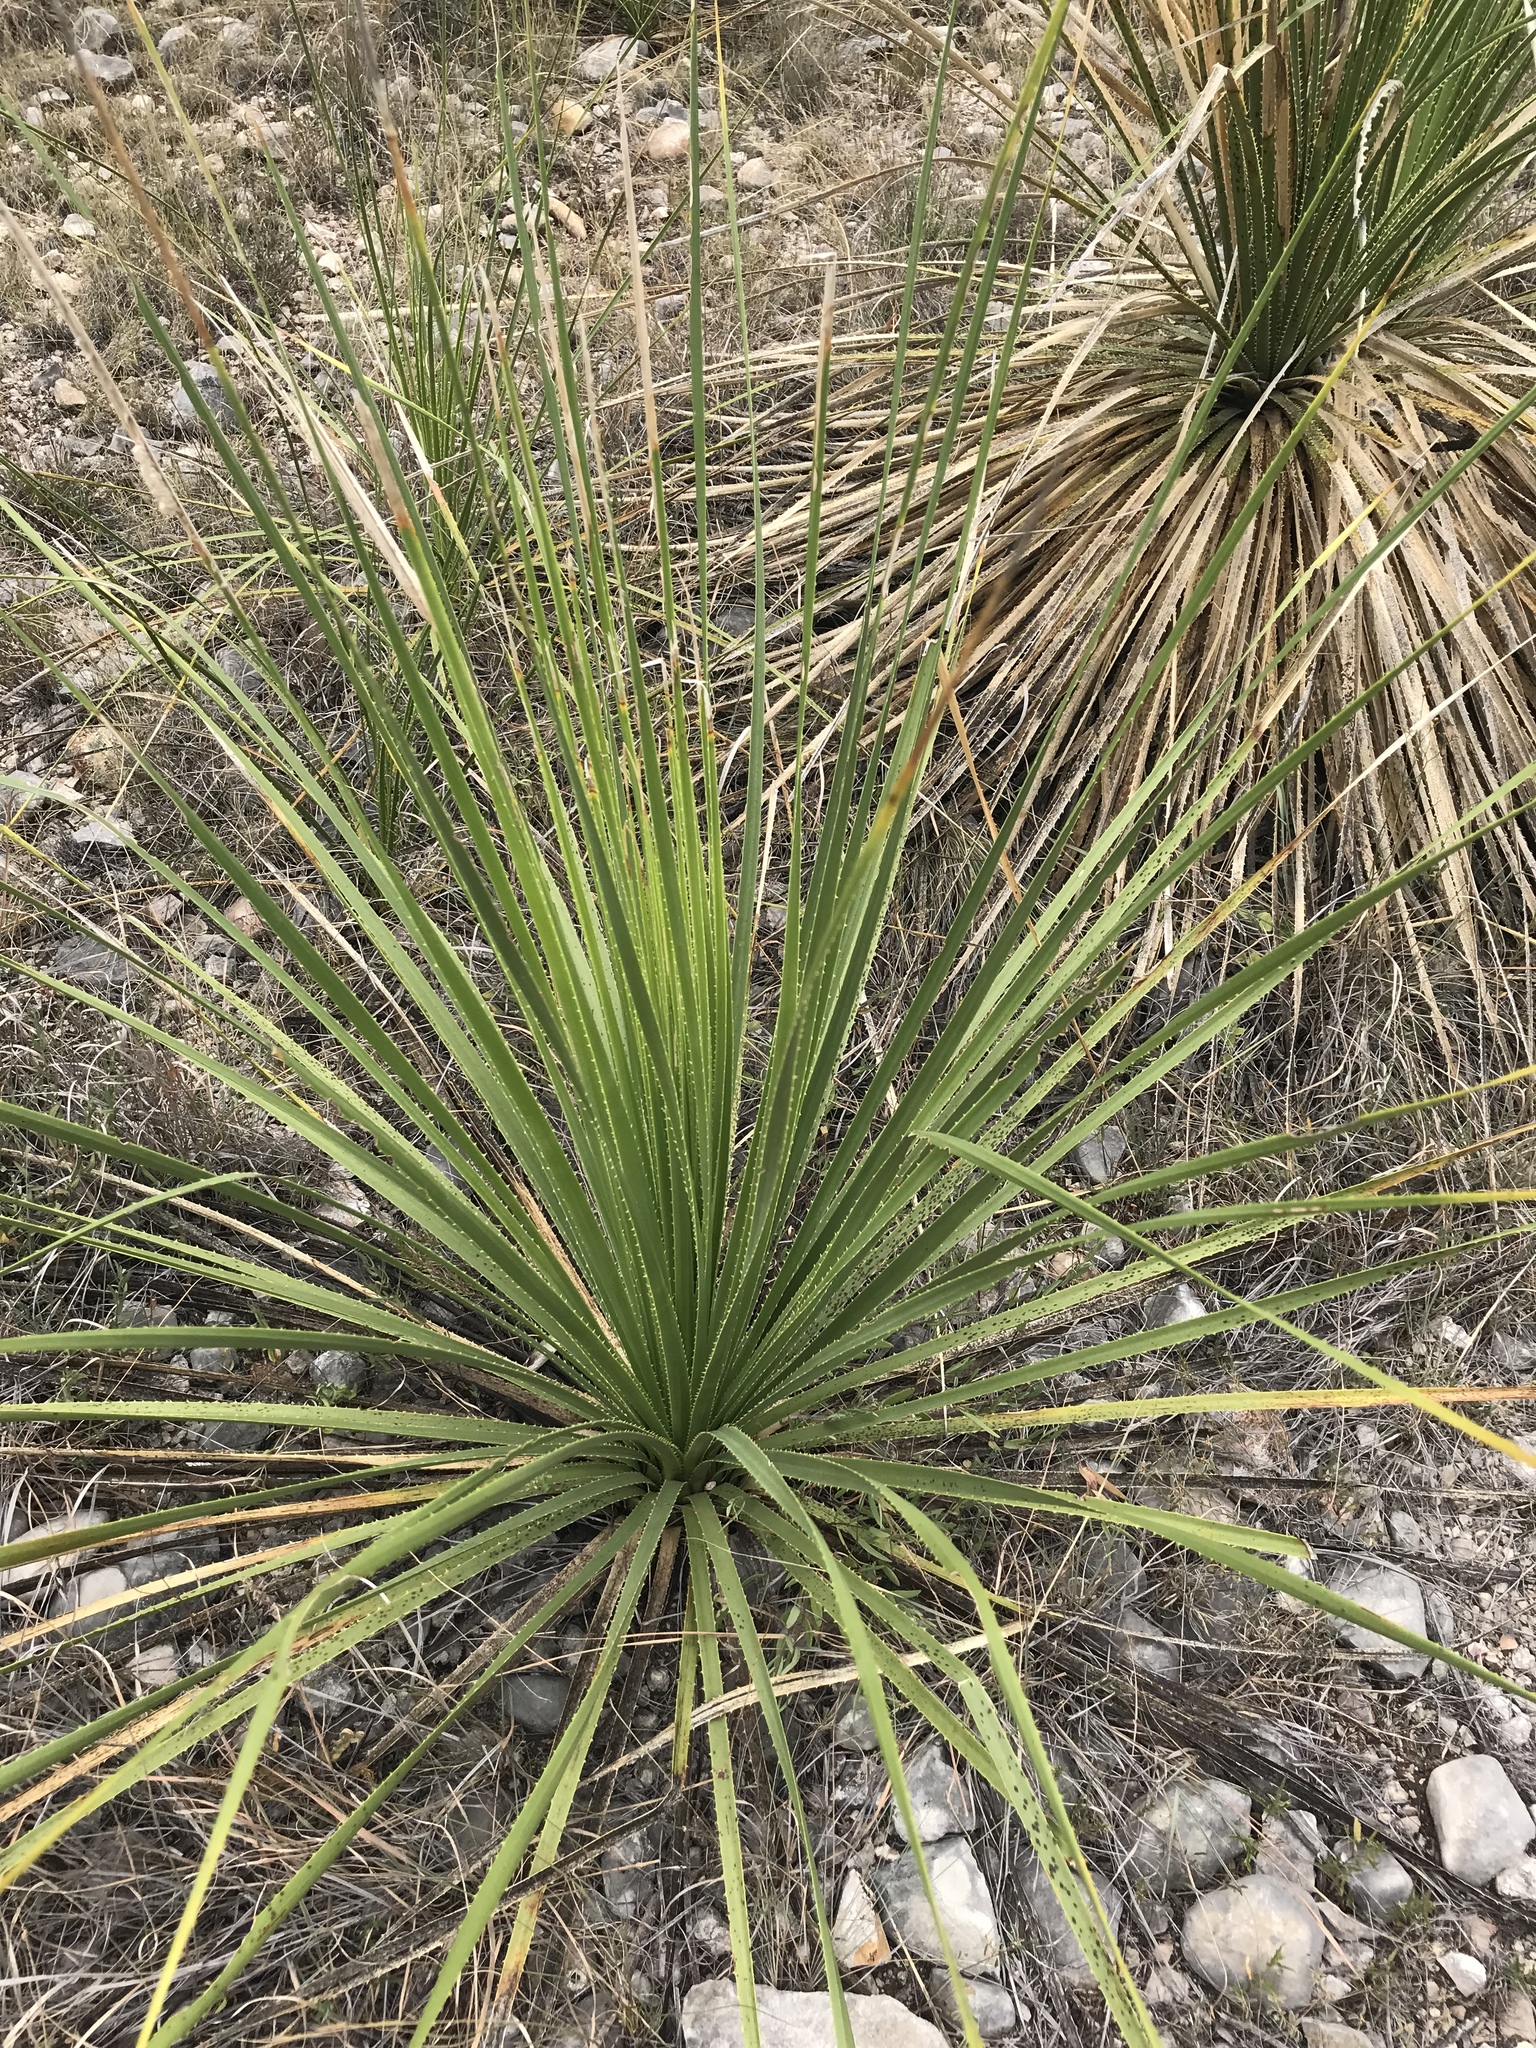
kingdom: Plantae
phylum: Tracheophyta
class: Liliopsida
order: Asparagales
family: Asparagaceae
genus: Dasylirion
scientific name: Dasylirion texanum
